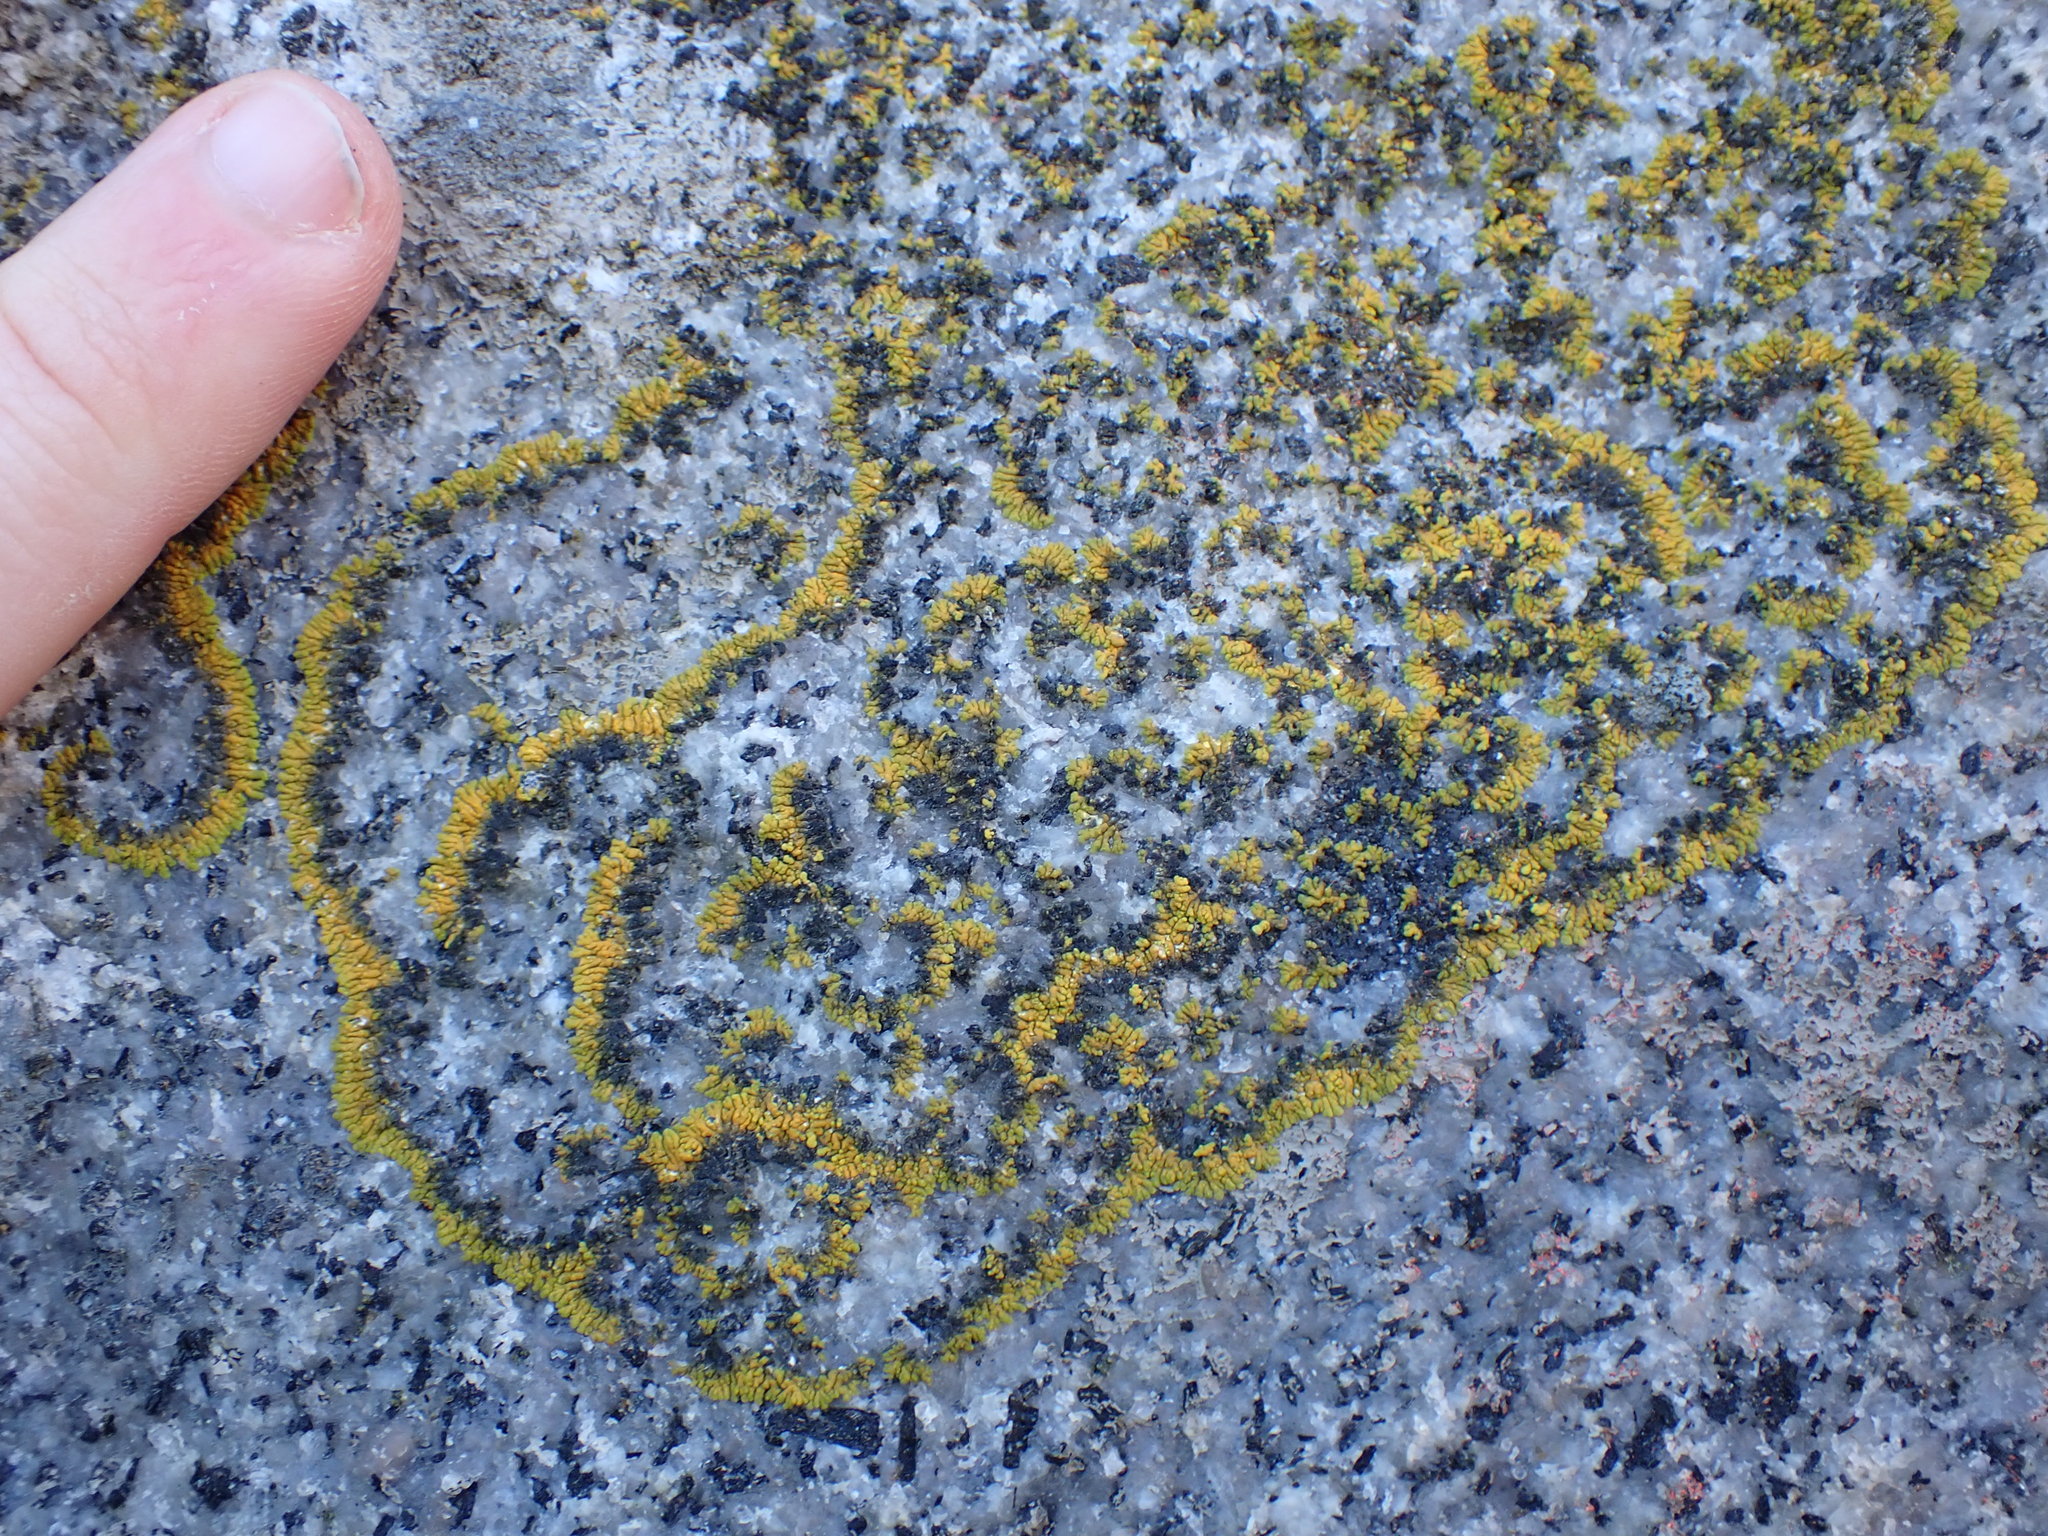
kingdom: Fungi
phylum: Ascomycota
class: Lecanoromycetes
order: Teloschistales
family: Teloschistaceae
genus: Verrucoplaca
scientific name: Verrucoplaca verruculifera
